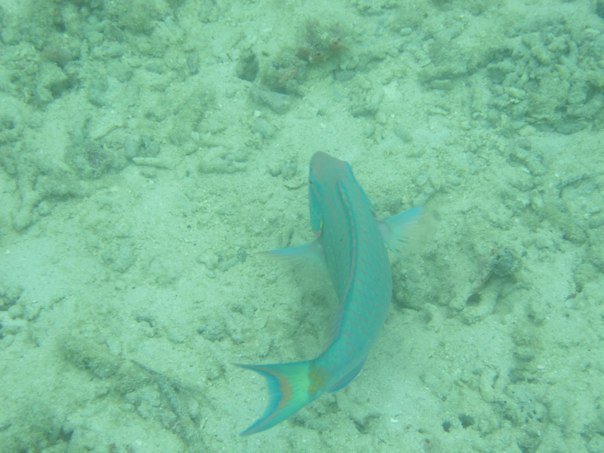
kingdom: Animalia
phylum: Chordata
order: Perciformes
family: Scaridae
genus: Sparisoma
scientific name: Sparisoma viride
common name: Stoplight parrotfish
